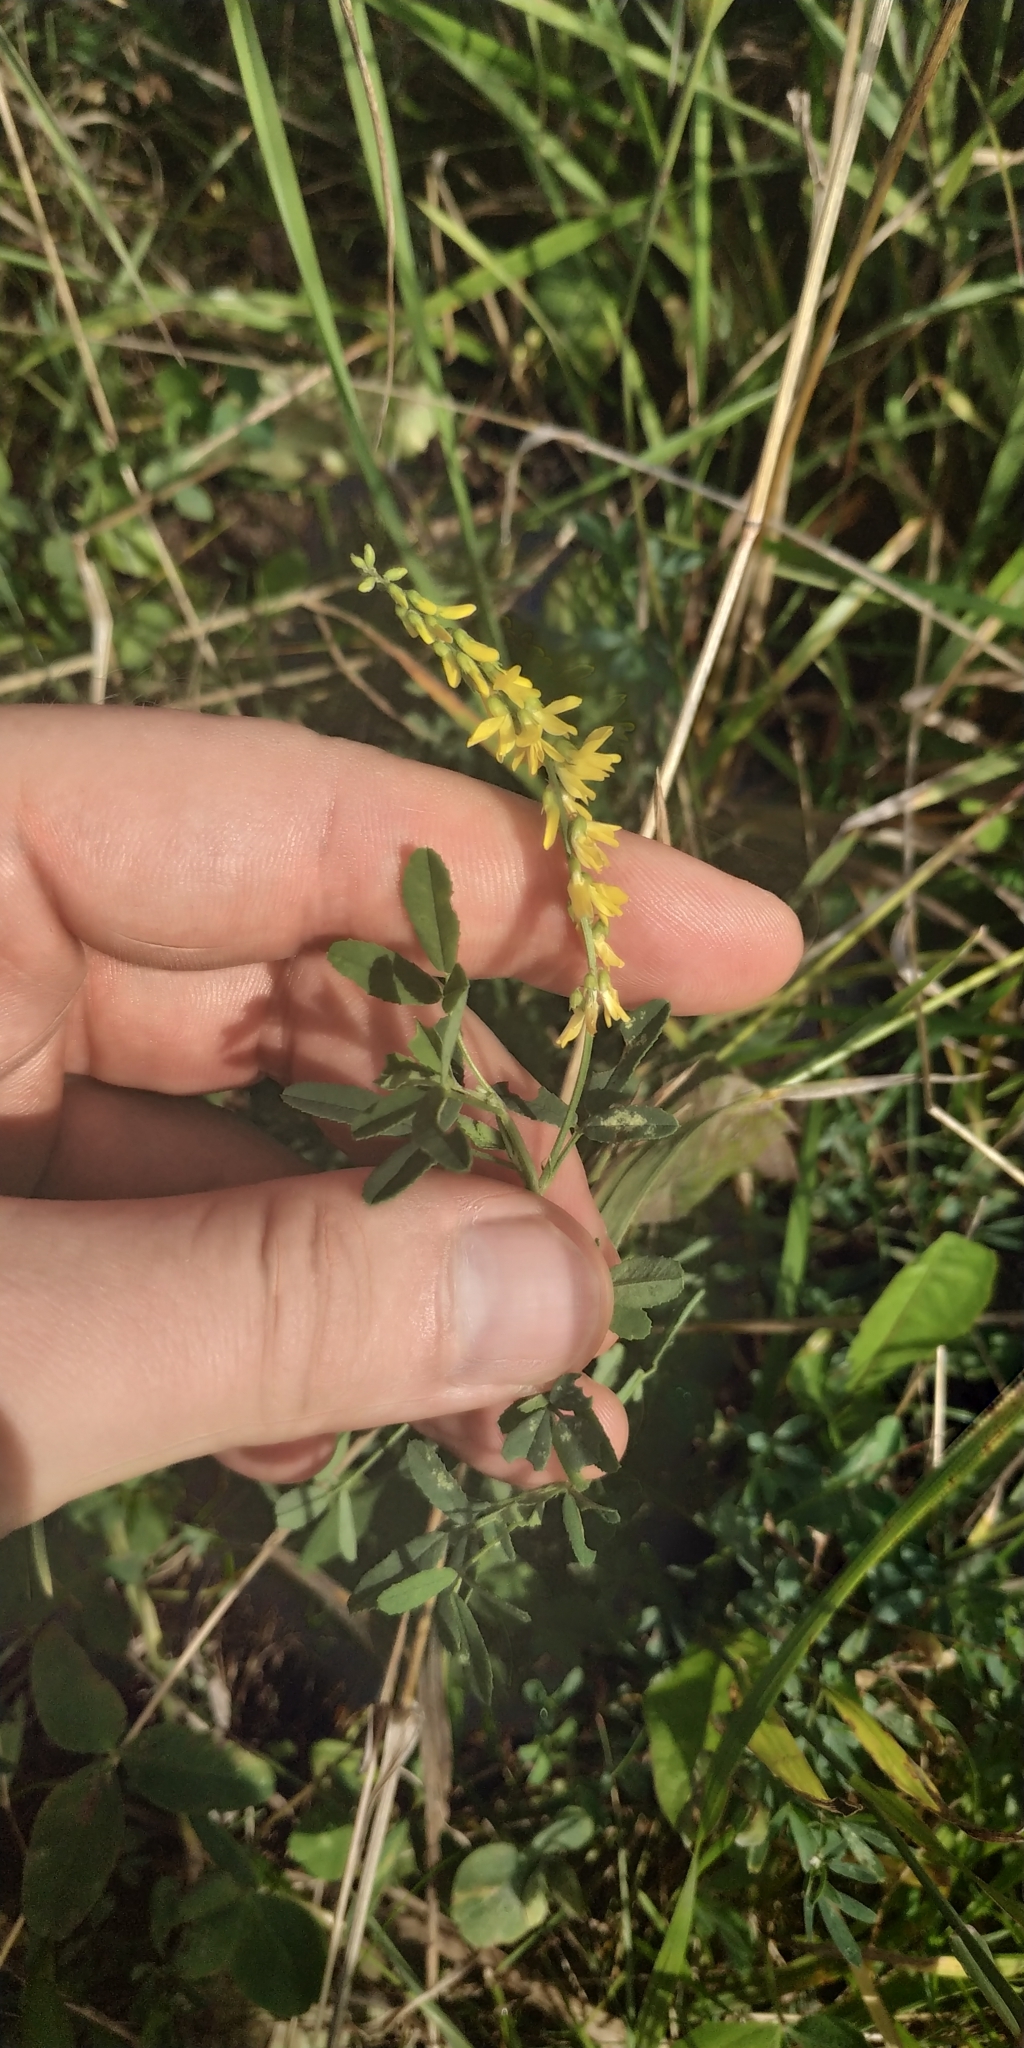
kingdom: Plantae
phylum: Tracheophyta
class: Magnoliopsida
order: Fabales
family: Fabaceae
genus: Melilotus
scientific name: Melilotus officinalis
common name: Sweetclover
